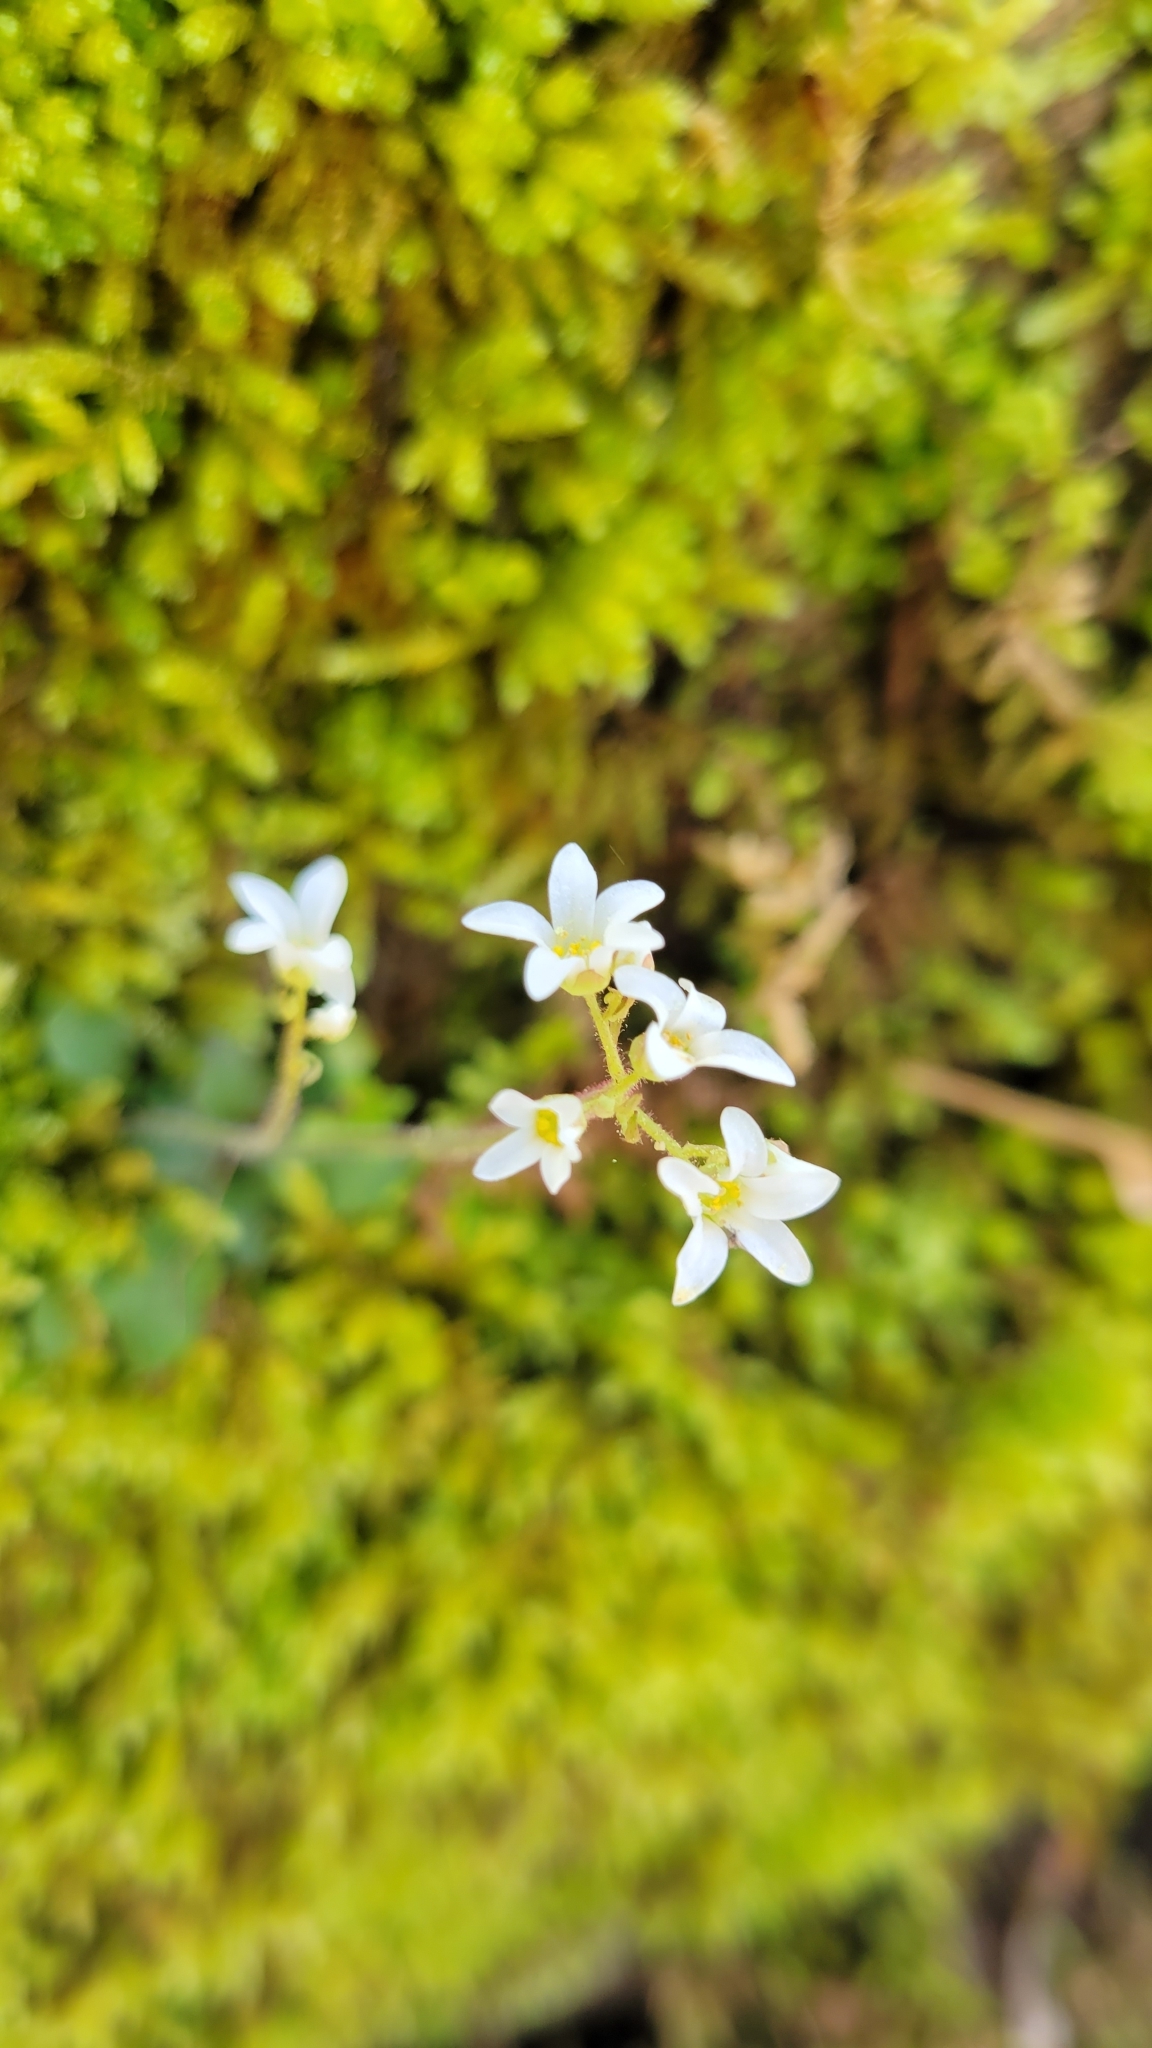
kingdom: Plantae
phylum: Tracheophyta
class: Magnoliopsida
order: Saxifragales
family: Saxifragaceae
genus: Micranthes
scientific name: Micranthes virginiensis
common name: Early saxifrage
